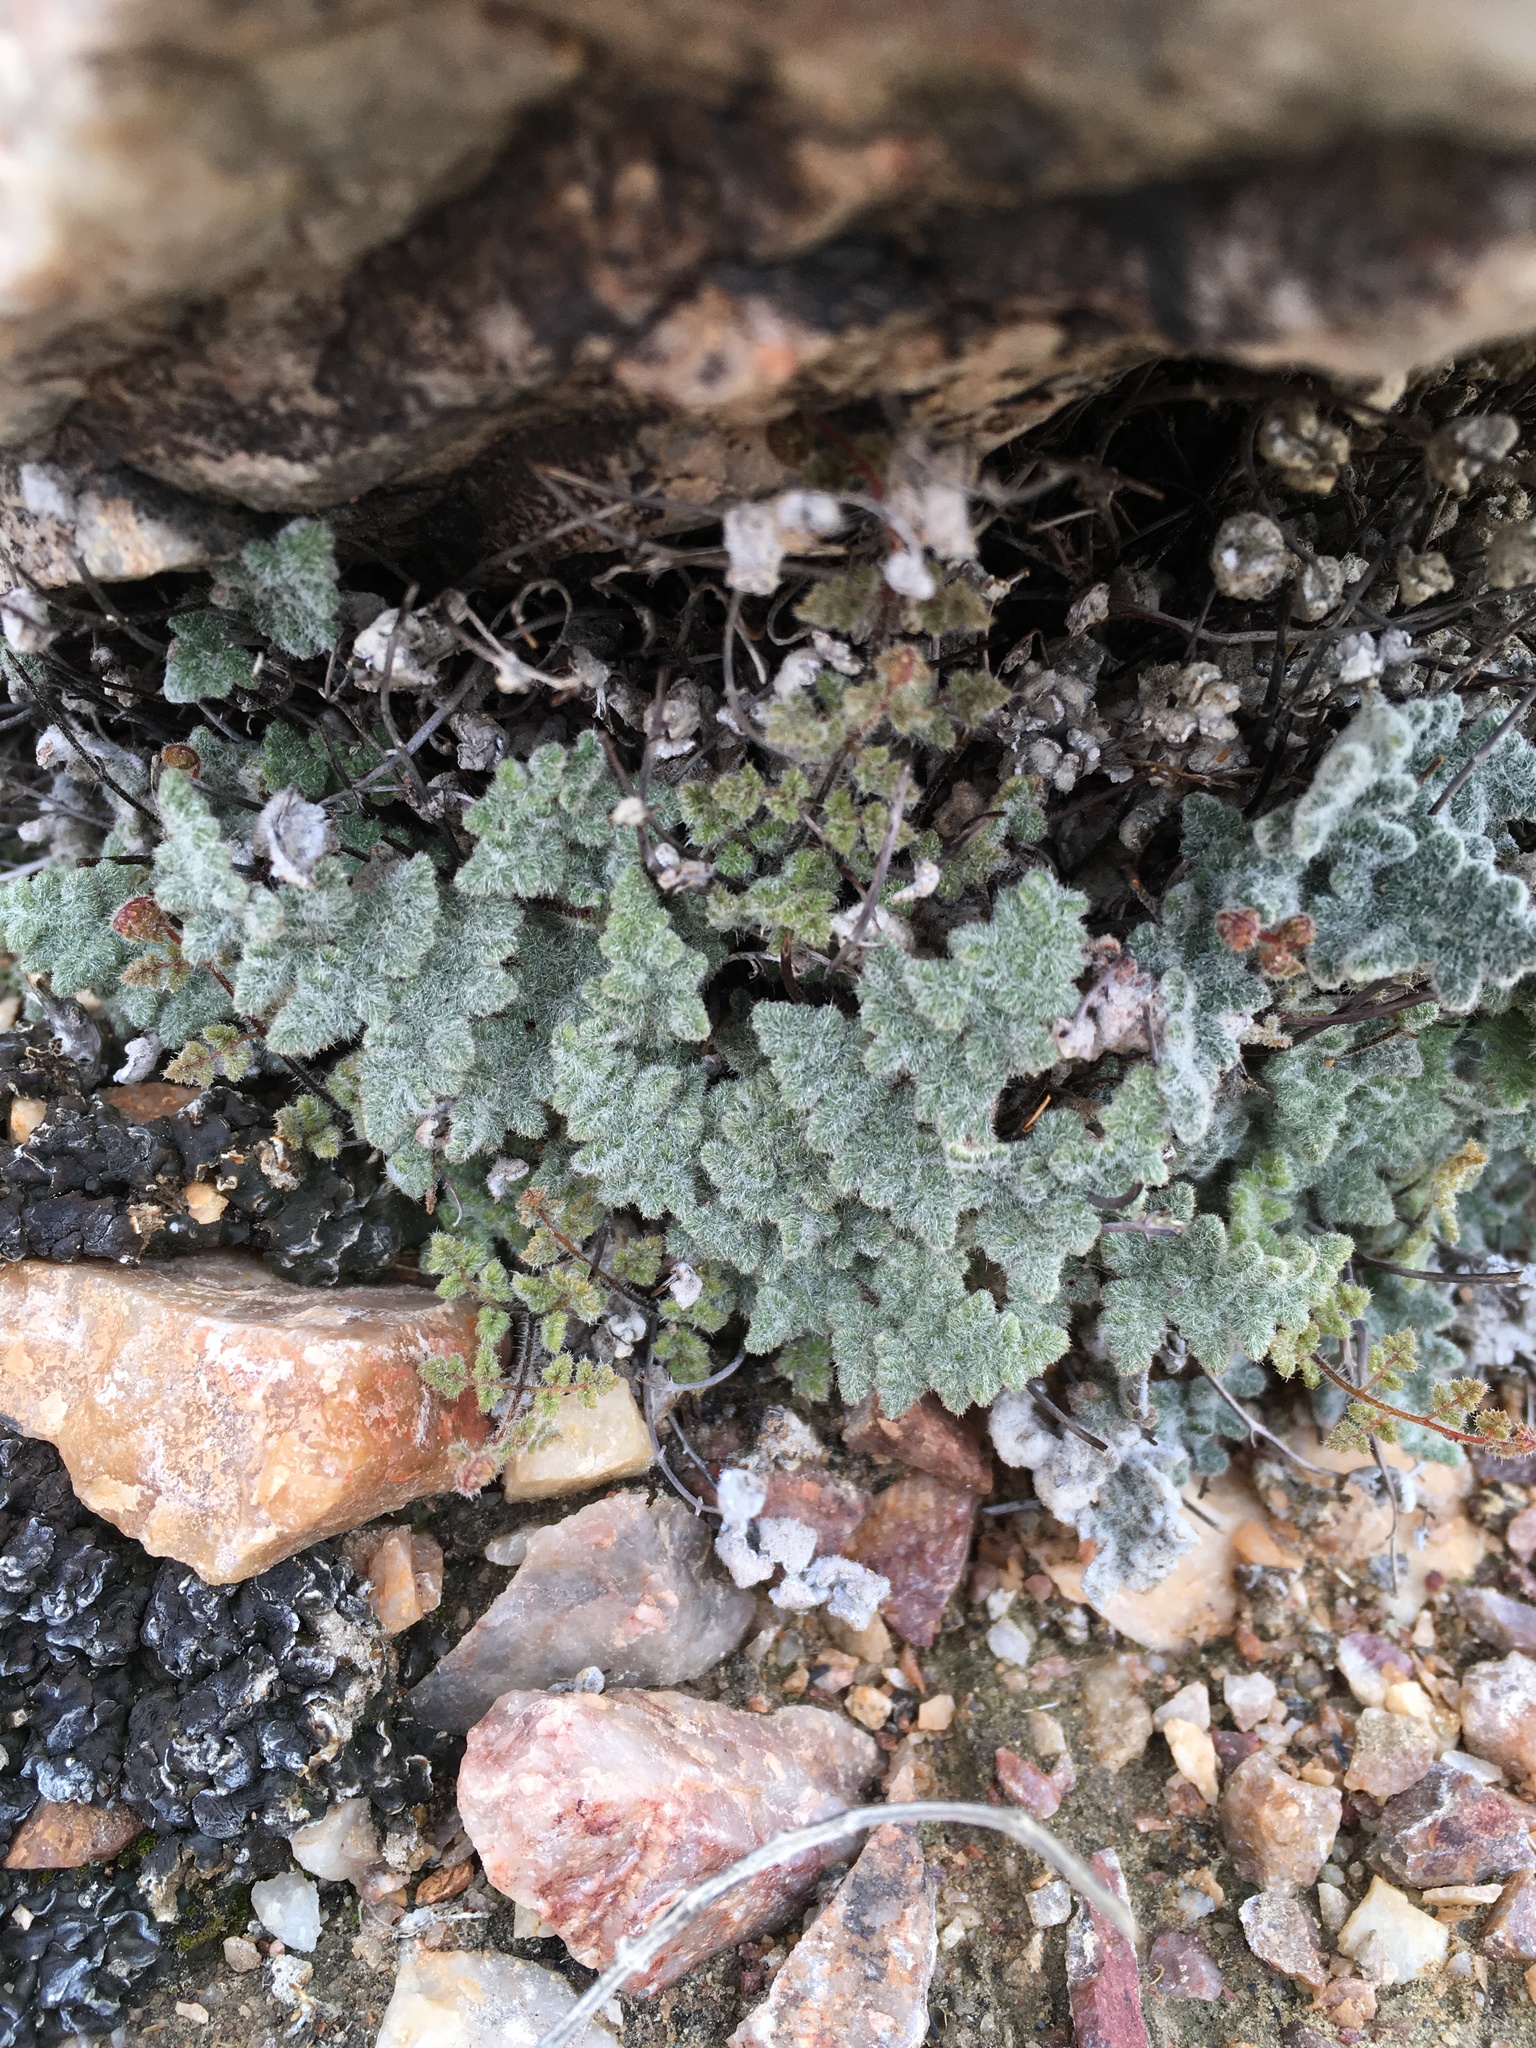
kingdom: Plantae
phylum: Tracheophyta
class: Polypodiopsida
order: Polypodiales
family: Pteridaceae
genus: Myriopteris
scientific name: Myriopteris parryi
